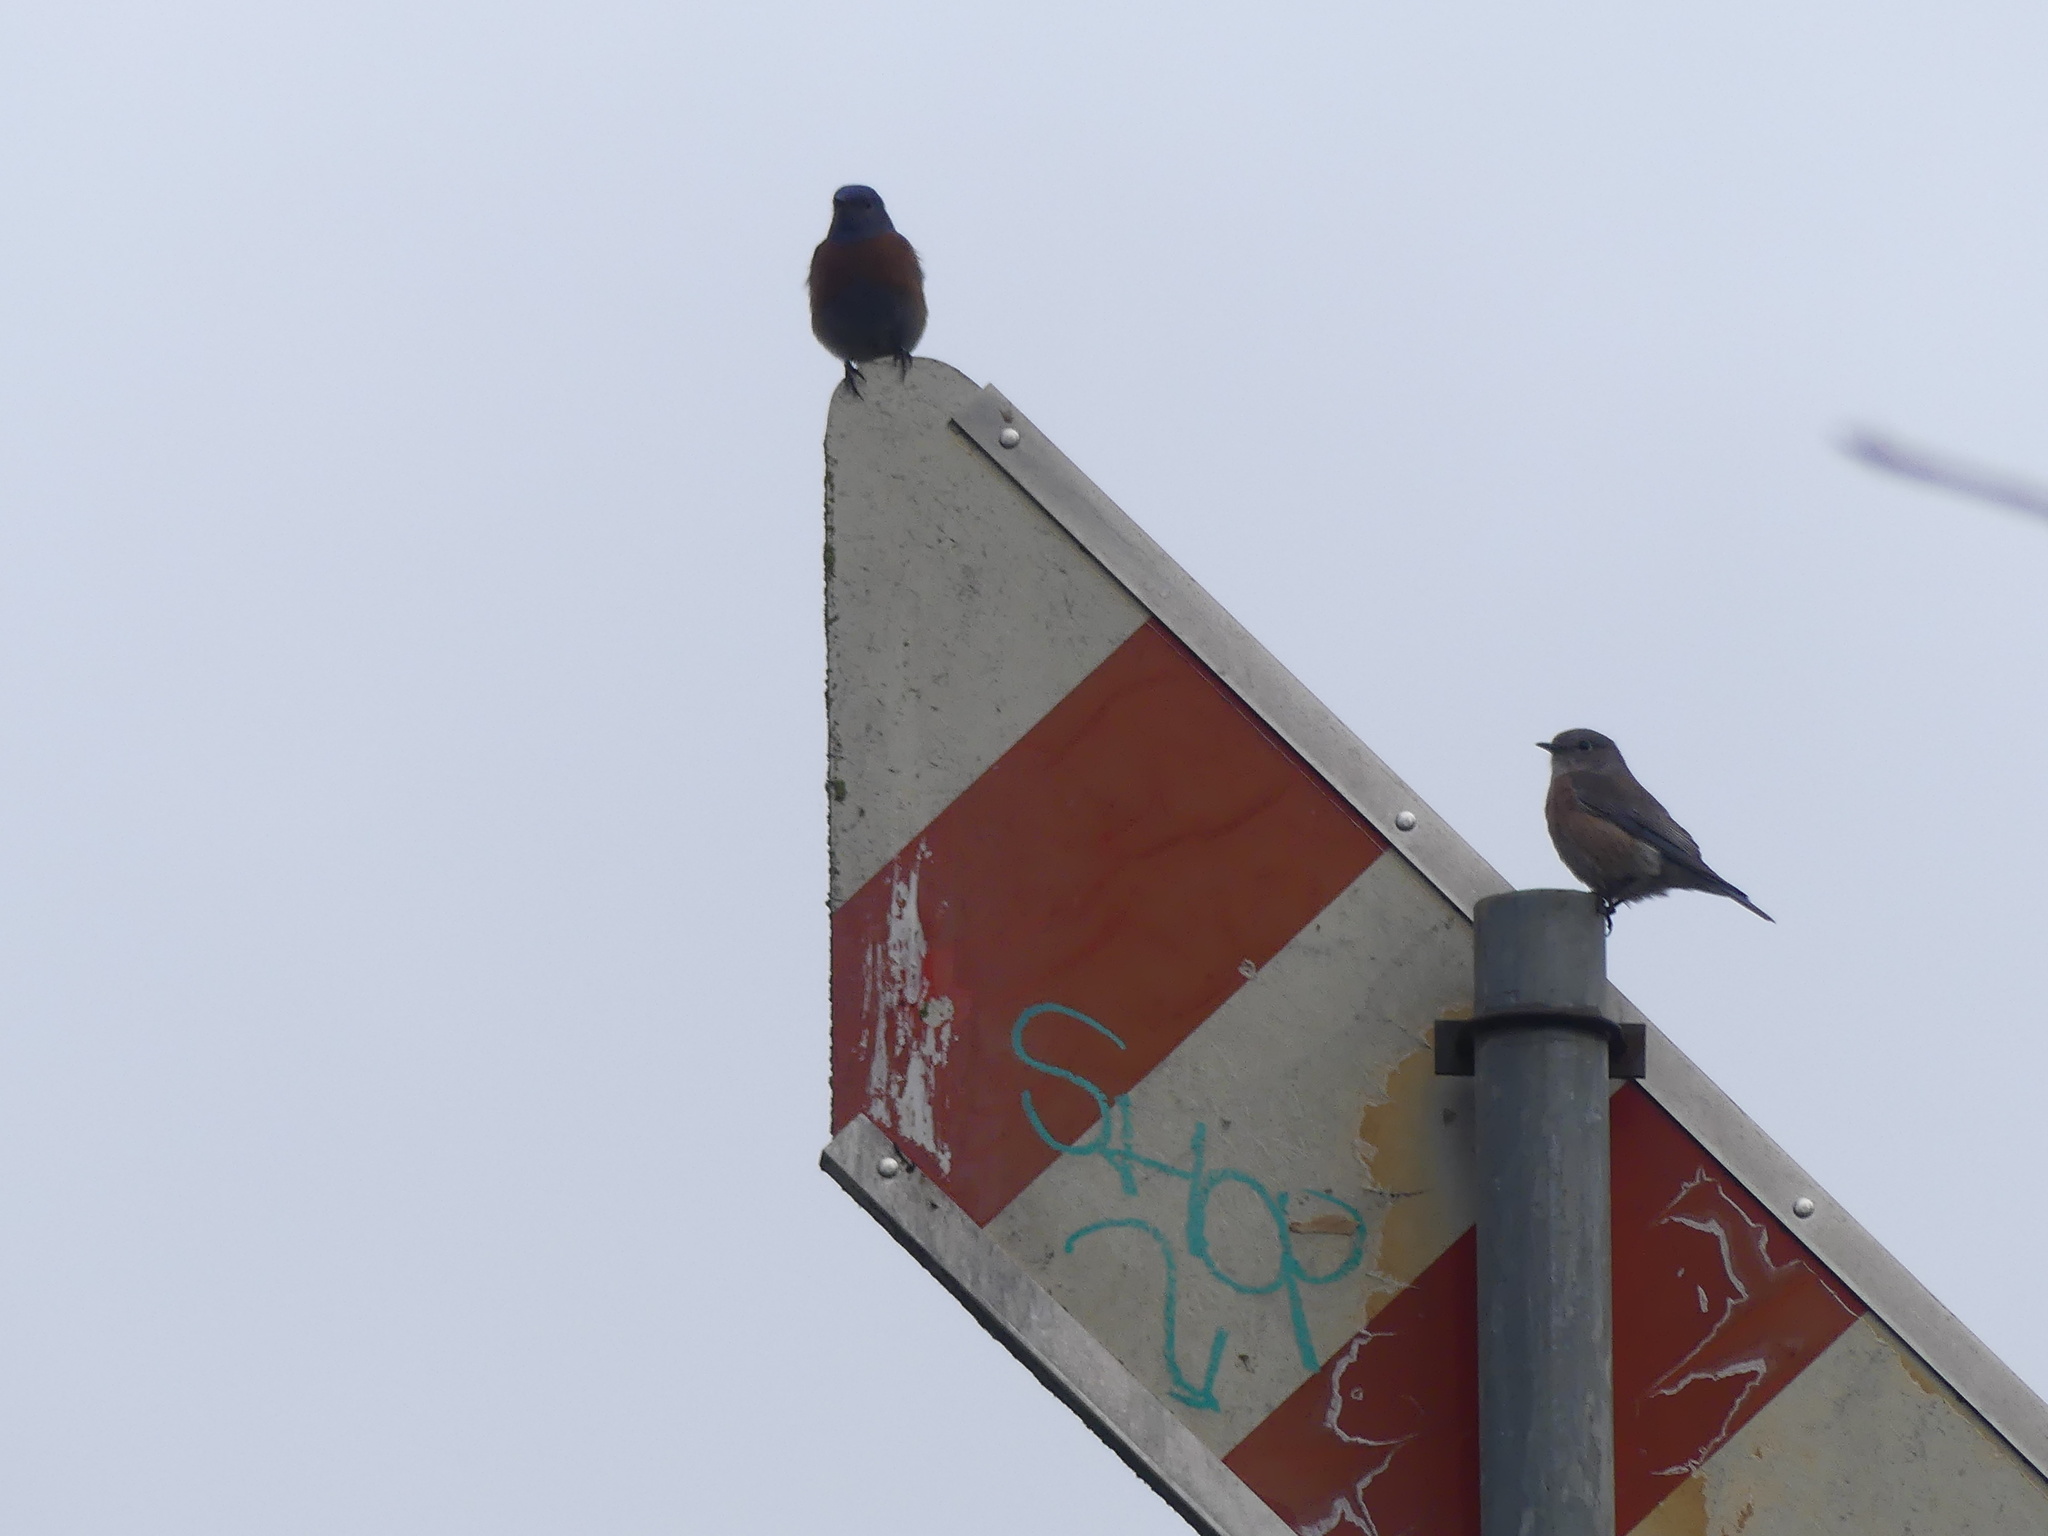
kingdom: Animalia
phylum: Chordata
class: Aves
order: Passeriformes
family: Turdidae
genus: Sialia
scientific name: Sialia mexicana
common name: Western bluebird
